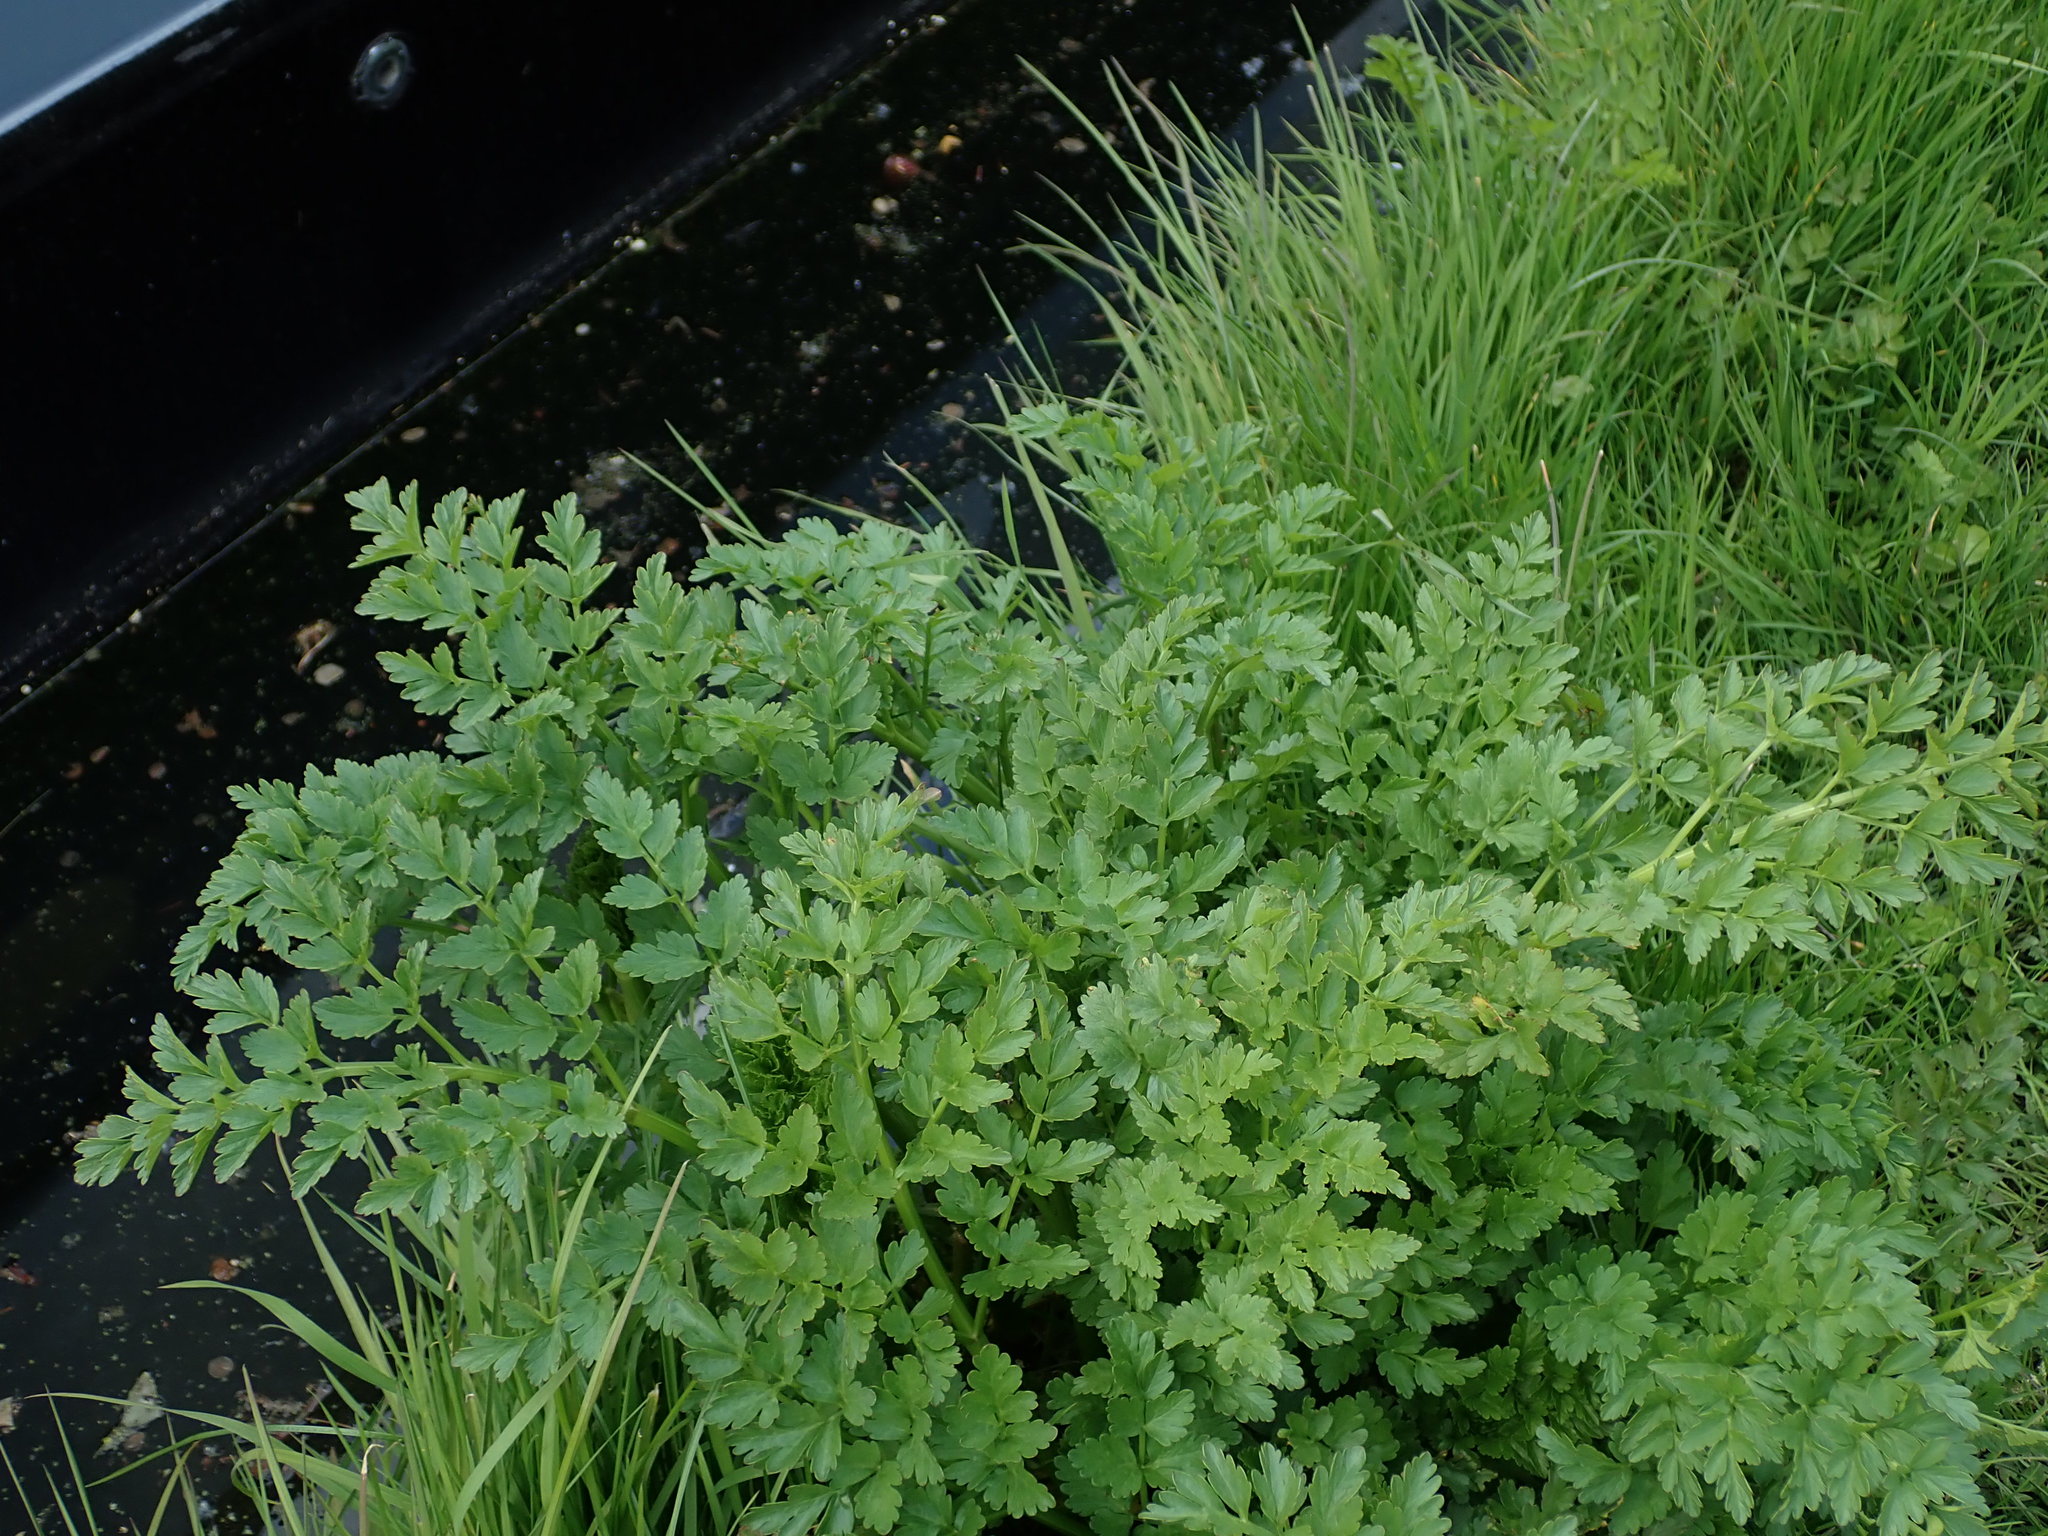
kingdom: Plantae
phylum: Tracheophyta
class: Magnoliopsida
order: Apiales
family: Apiaceae
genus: Oenanthe
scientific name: Oenanthe crocata
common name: Hemlock water-dropwort
